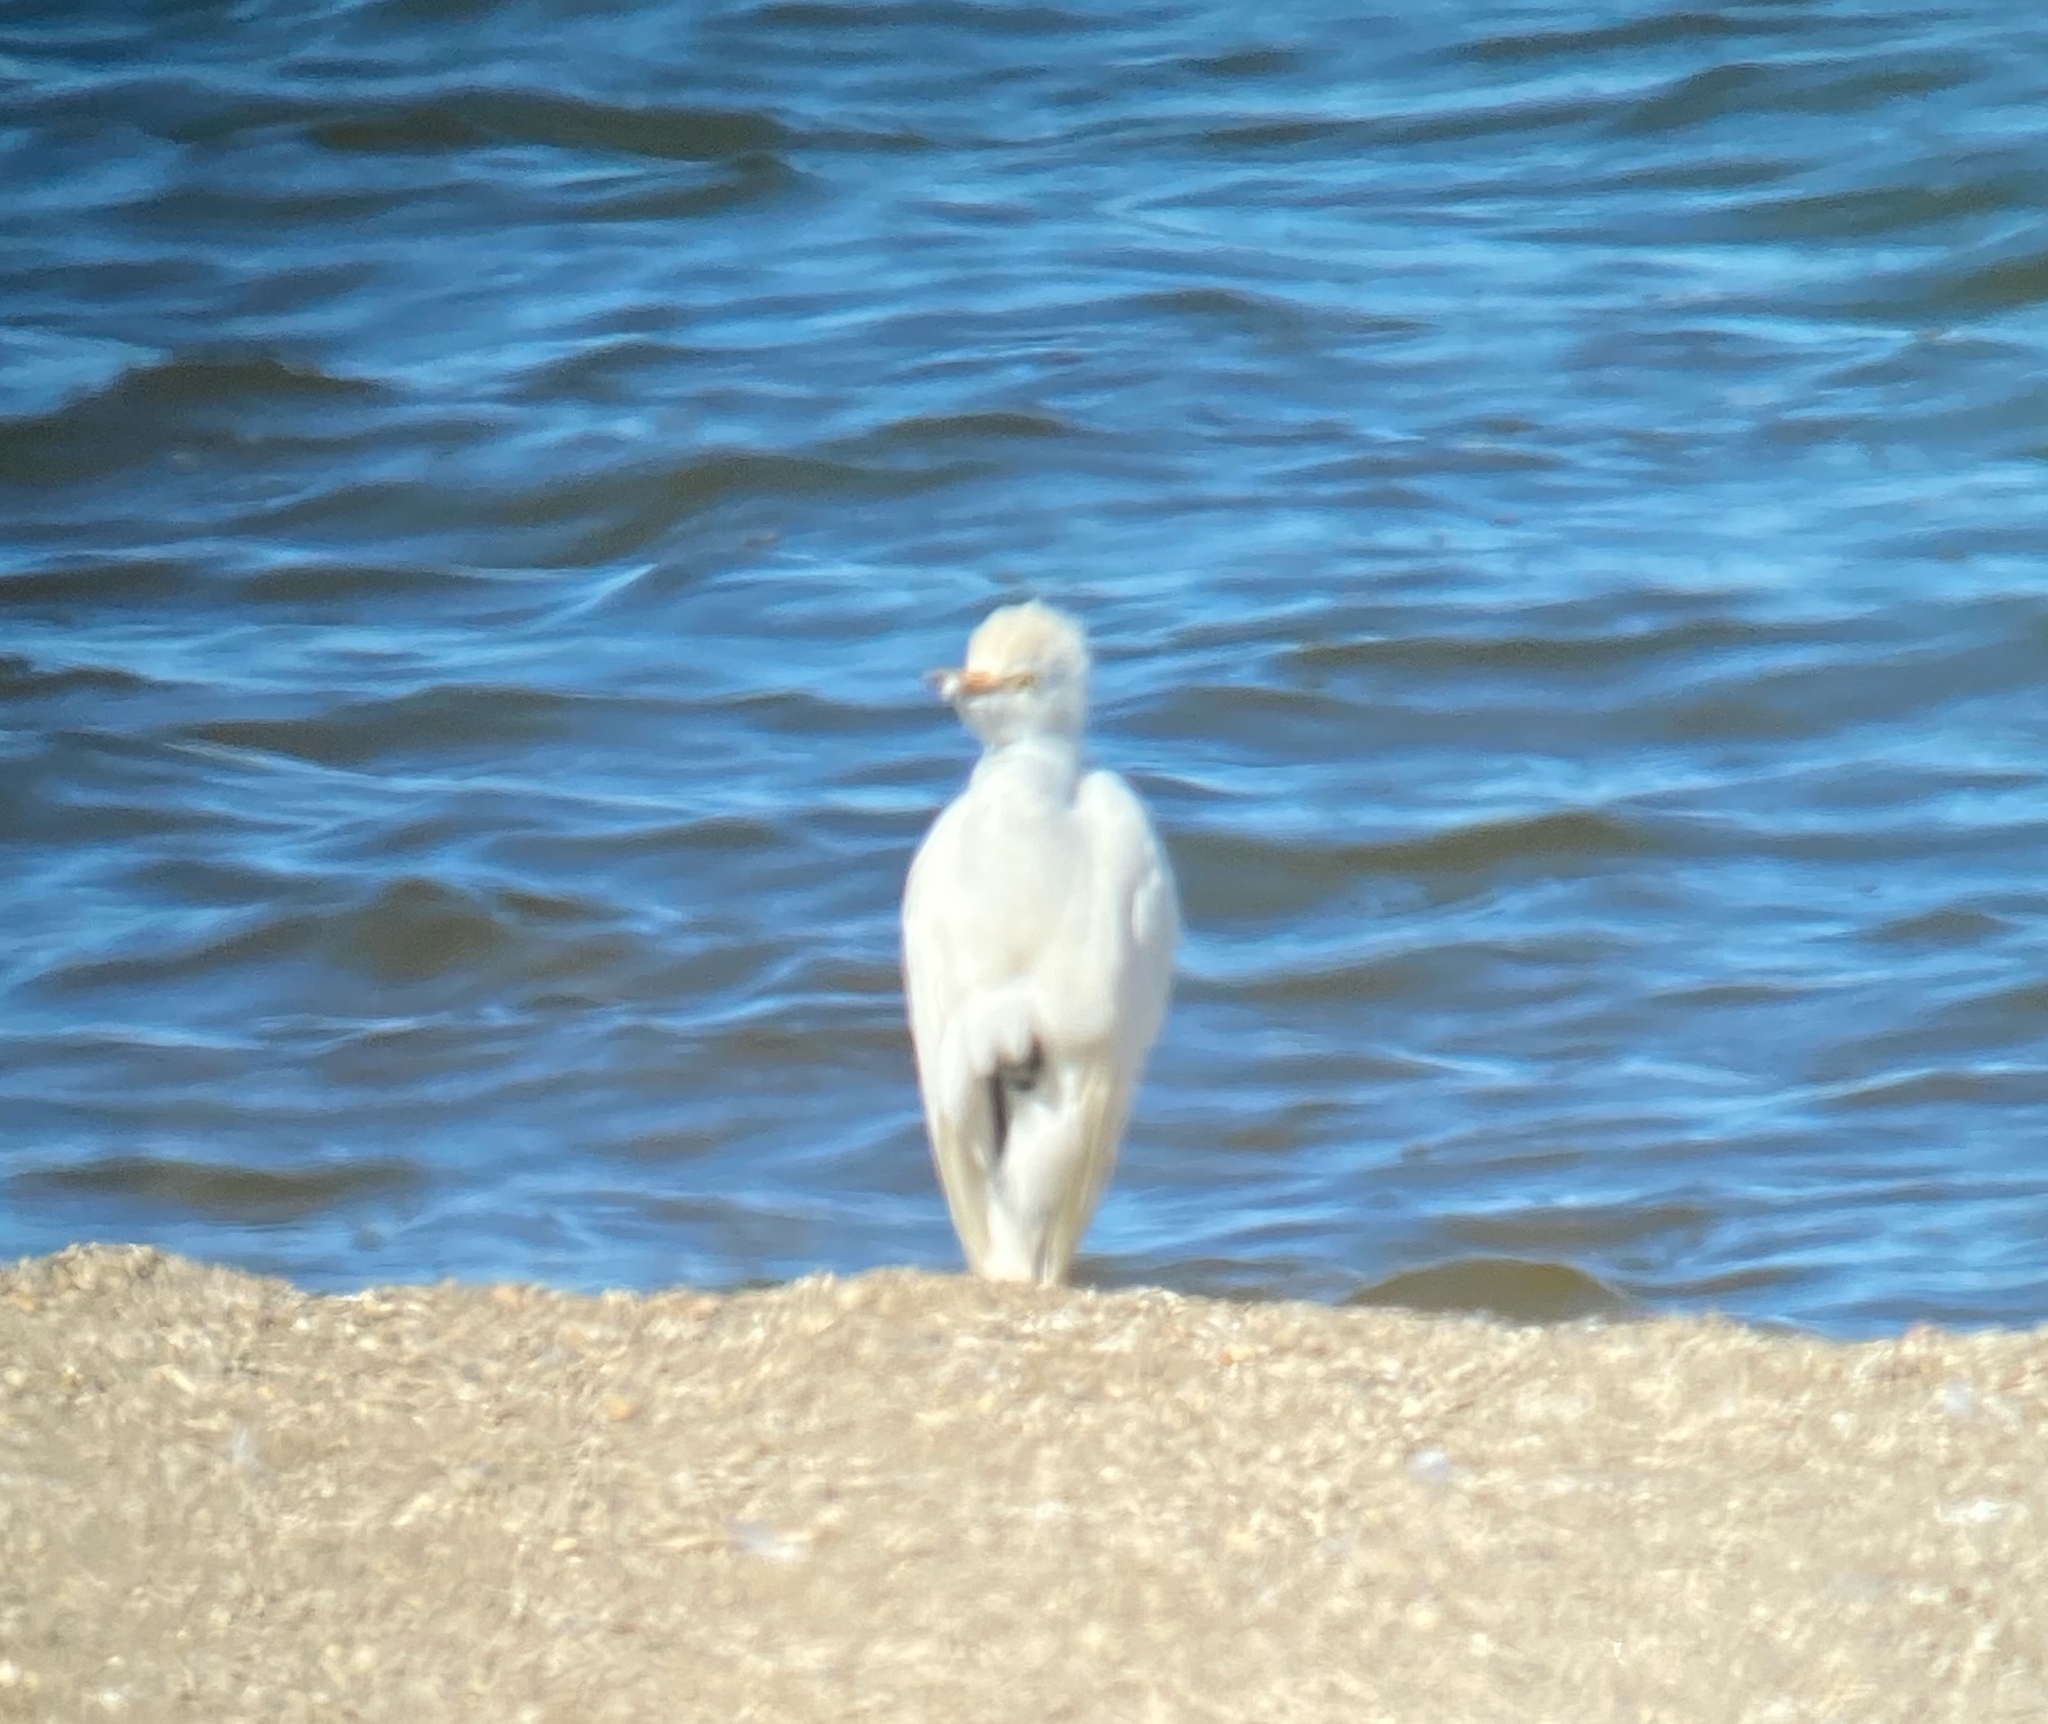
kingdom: Animalia
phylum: Chordata
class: Aves
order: Pelecaniformes
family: Ardeidae
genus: Bubulcus
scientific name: Bubulcus ibis
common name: Cattle egret
